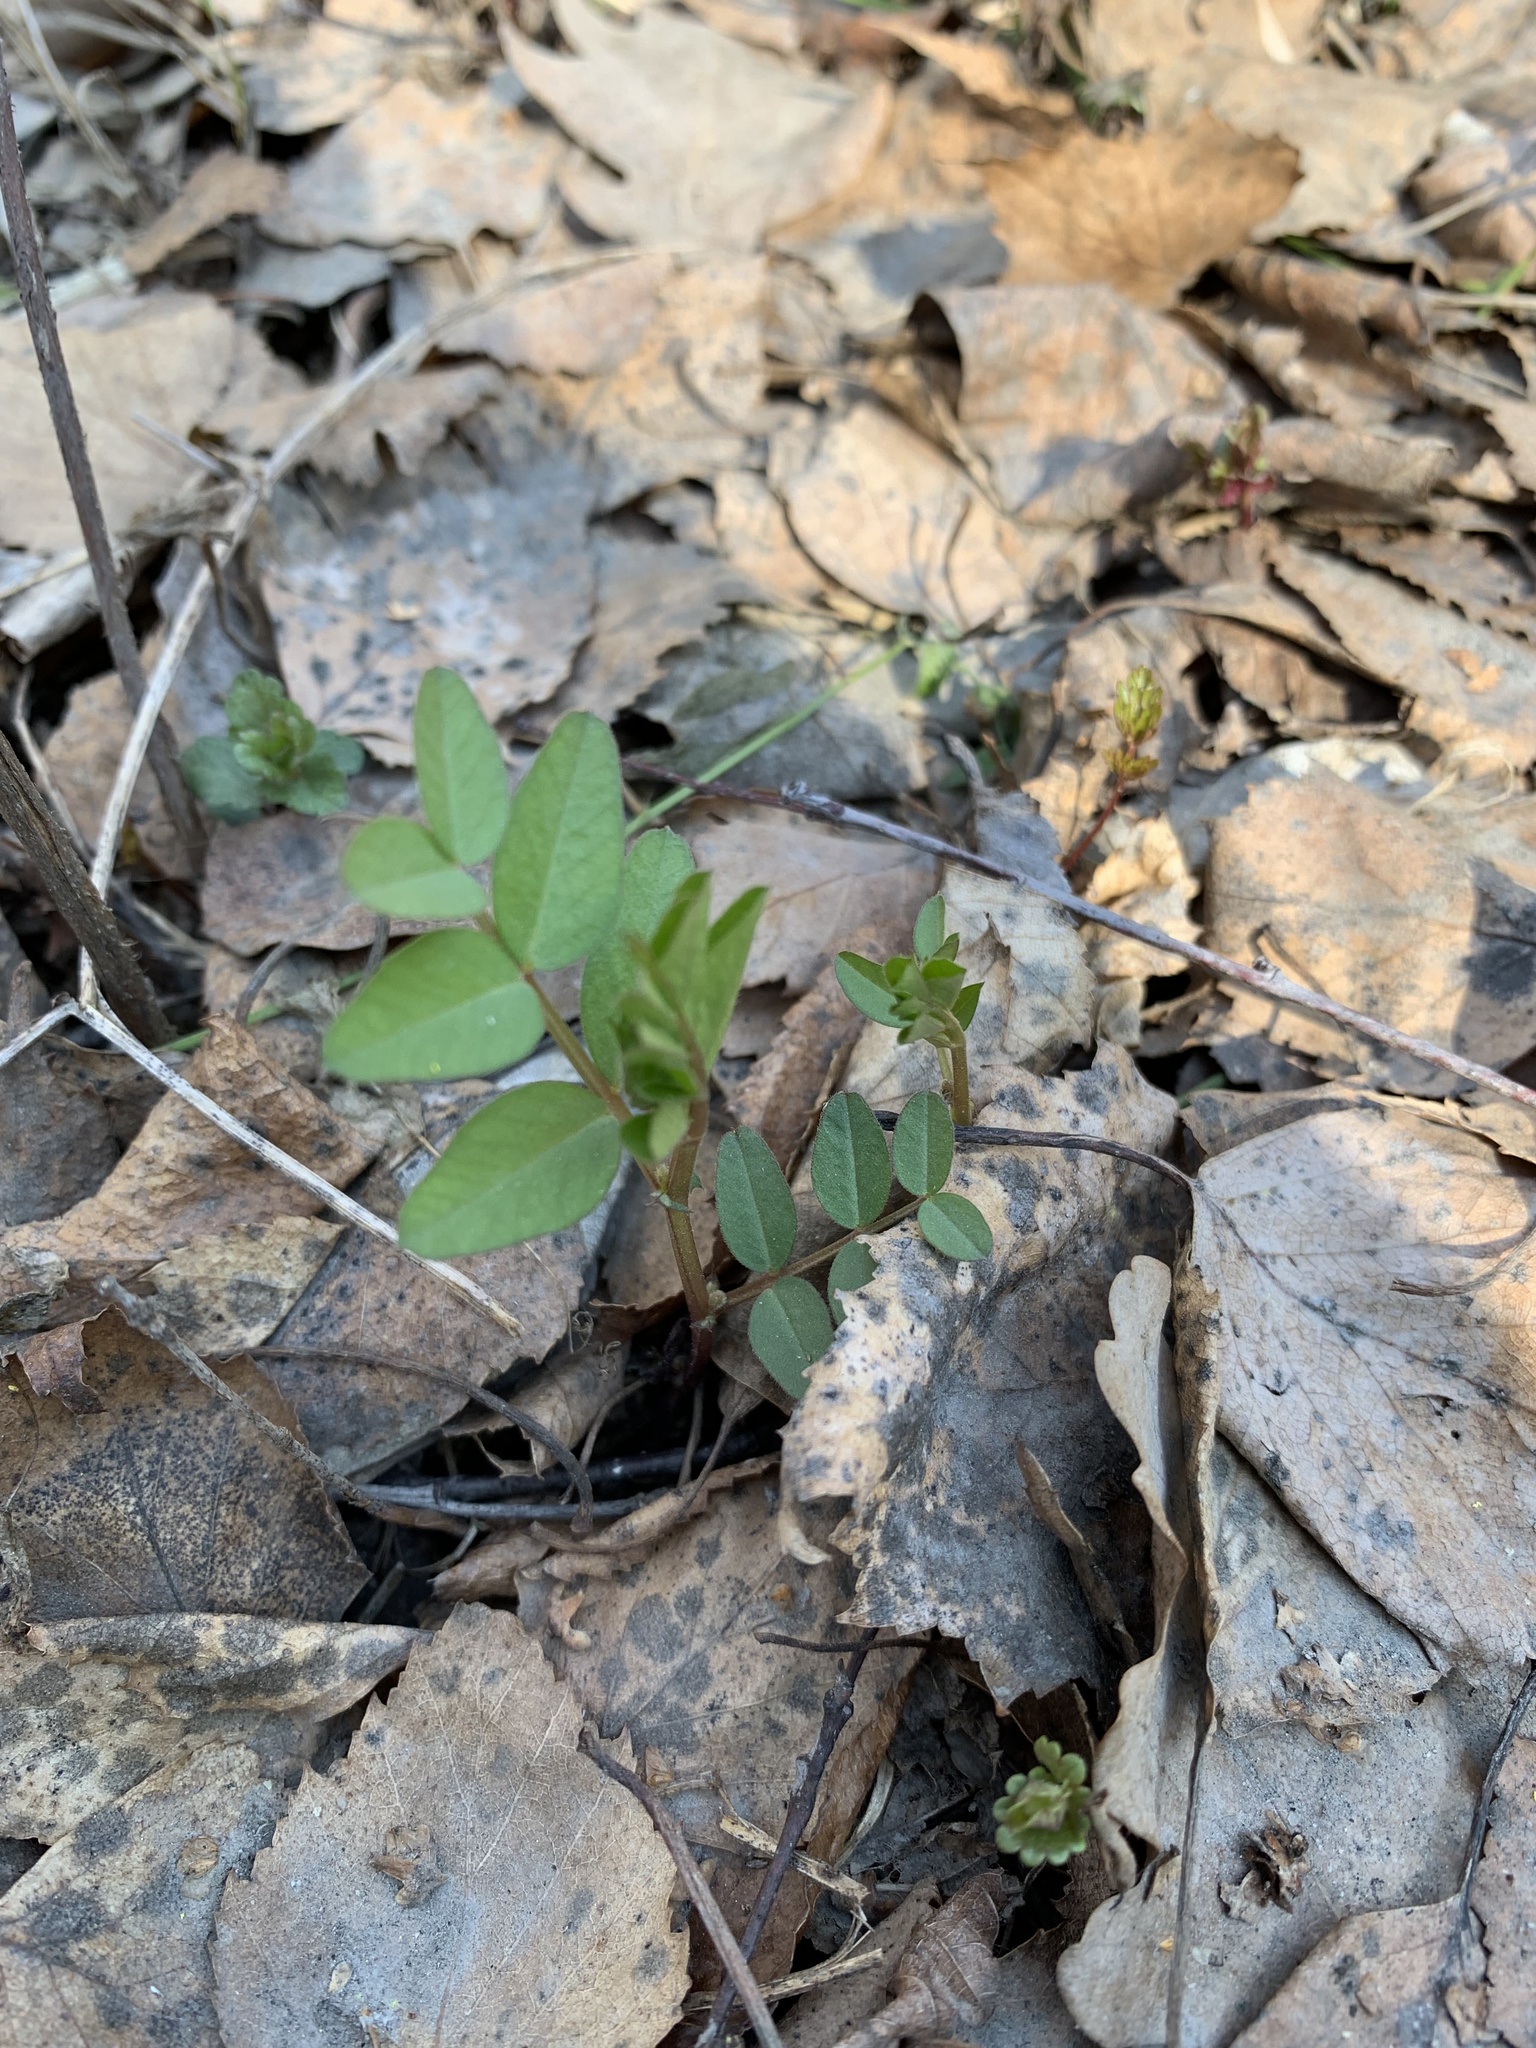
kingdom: Plantae
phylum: Tracheophyta
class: Magnoliopsida
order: Fabales
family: Fabaceae
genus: Vicia
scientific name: Vicia sepium
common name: Bush vetch
